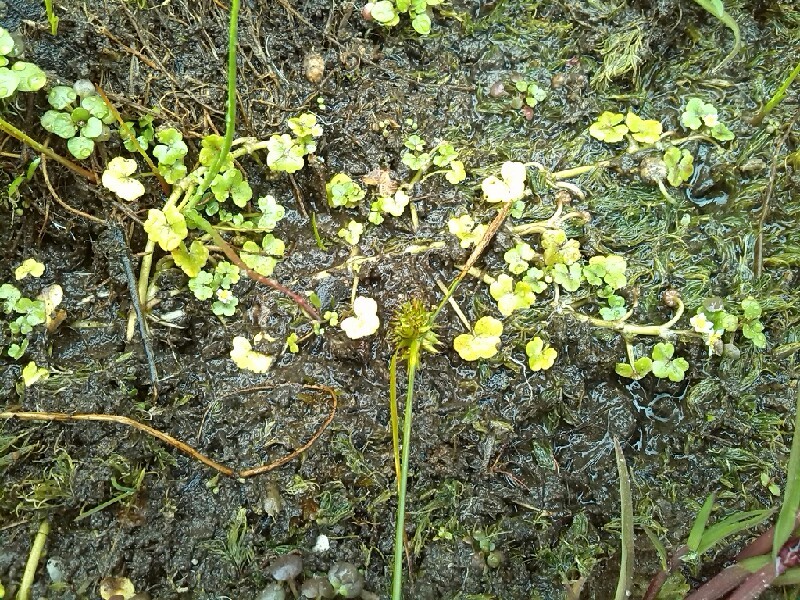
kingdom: Plantae
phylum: Tracheophyta
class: Magnoliopsida
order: Ranunculales
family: Ranunculaceae
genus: Ranunculus
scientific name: Ranunculus hederaceus
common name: Ivy-leaved crowfoot
